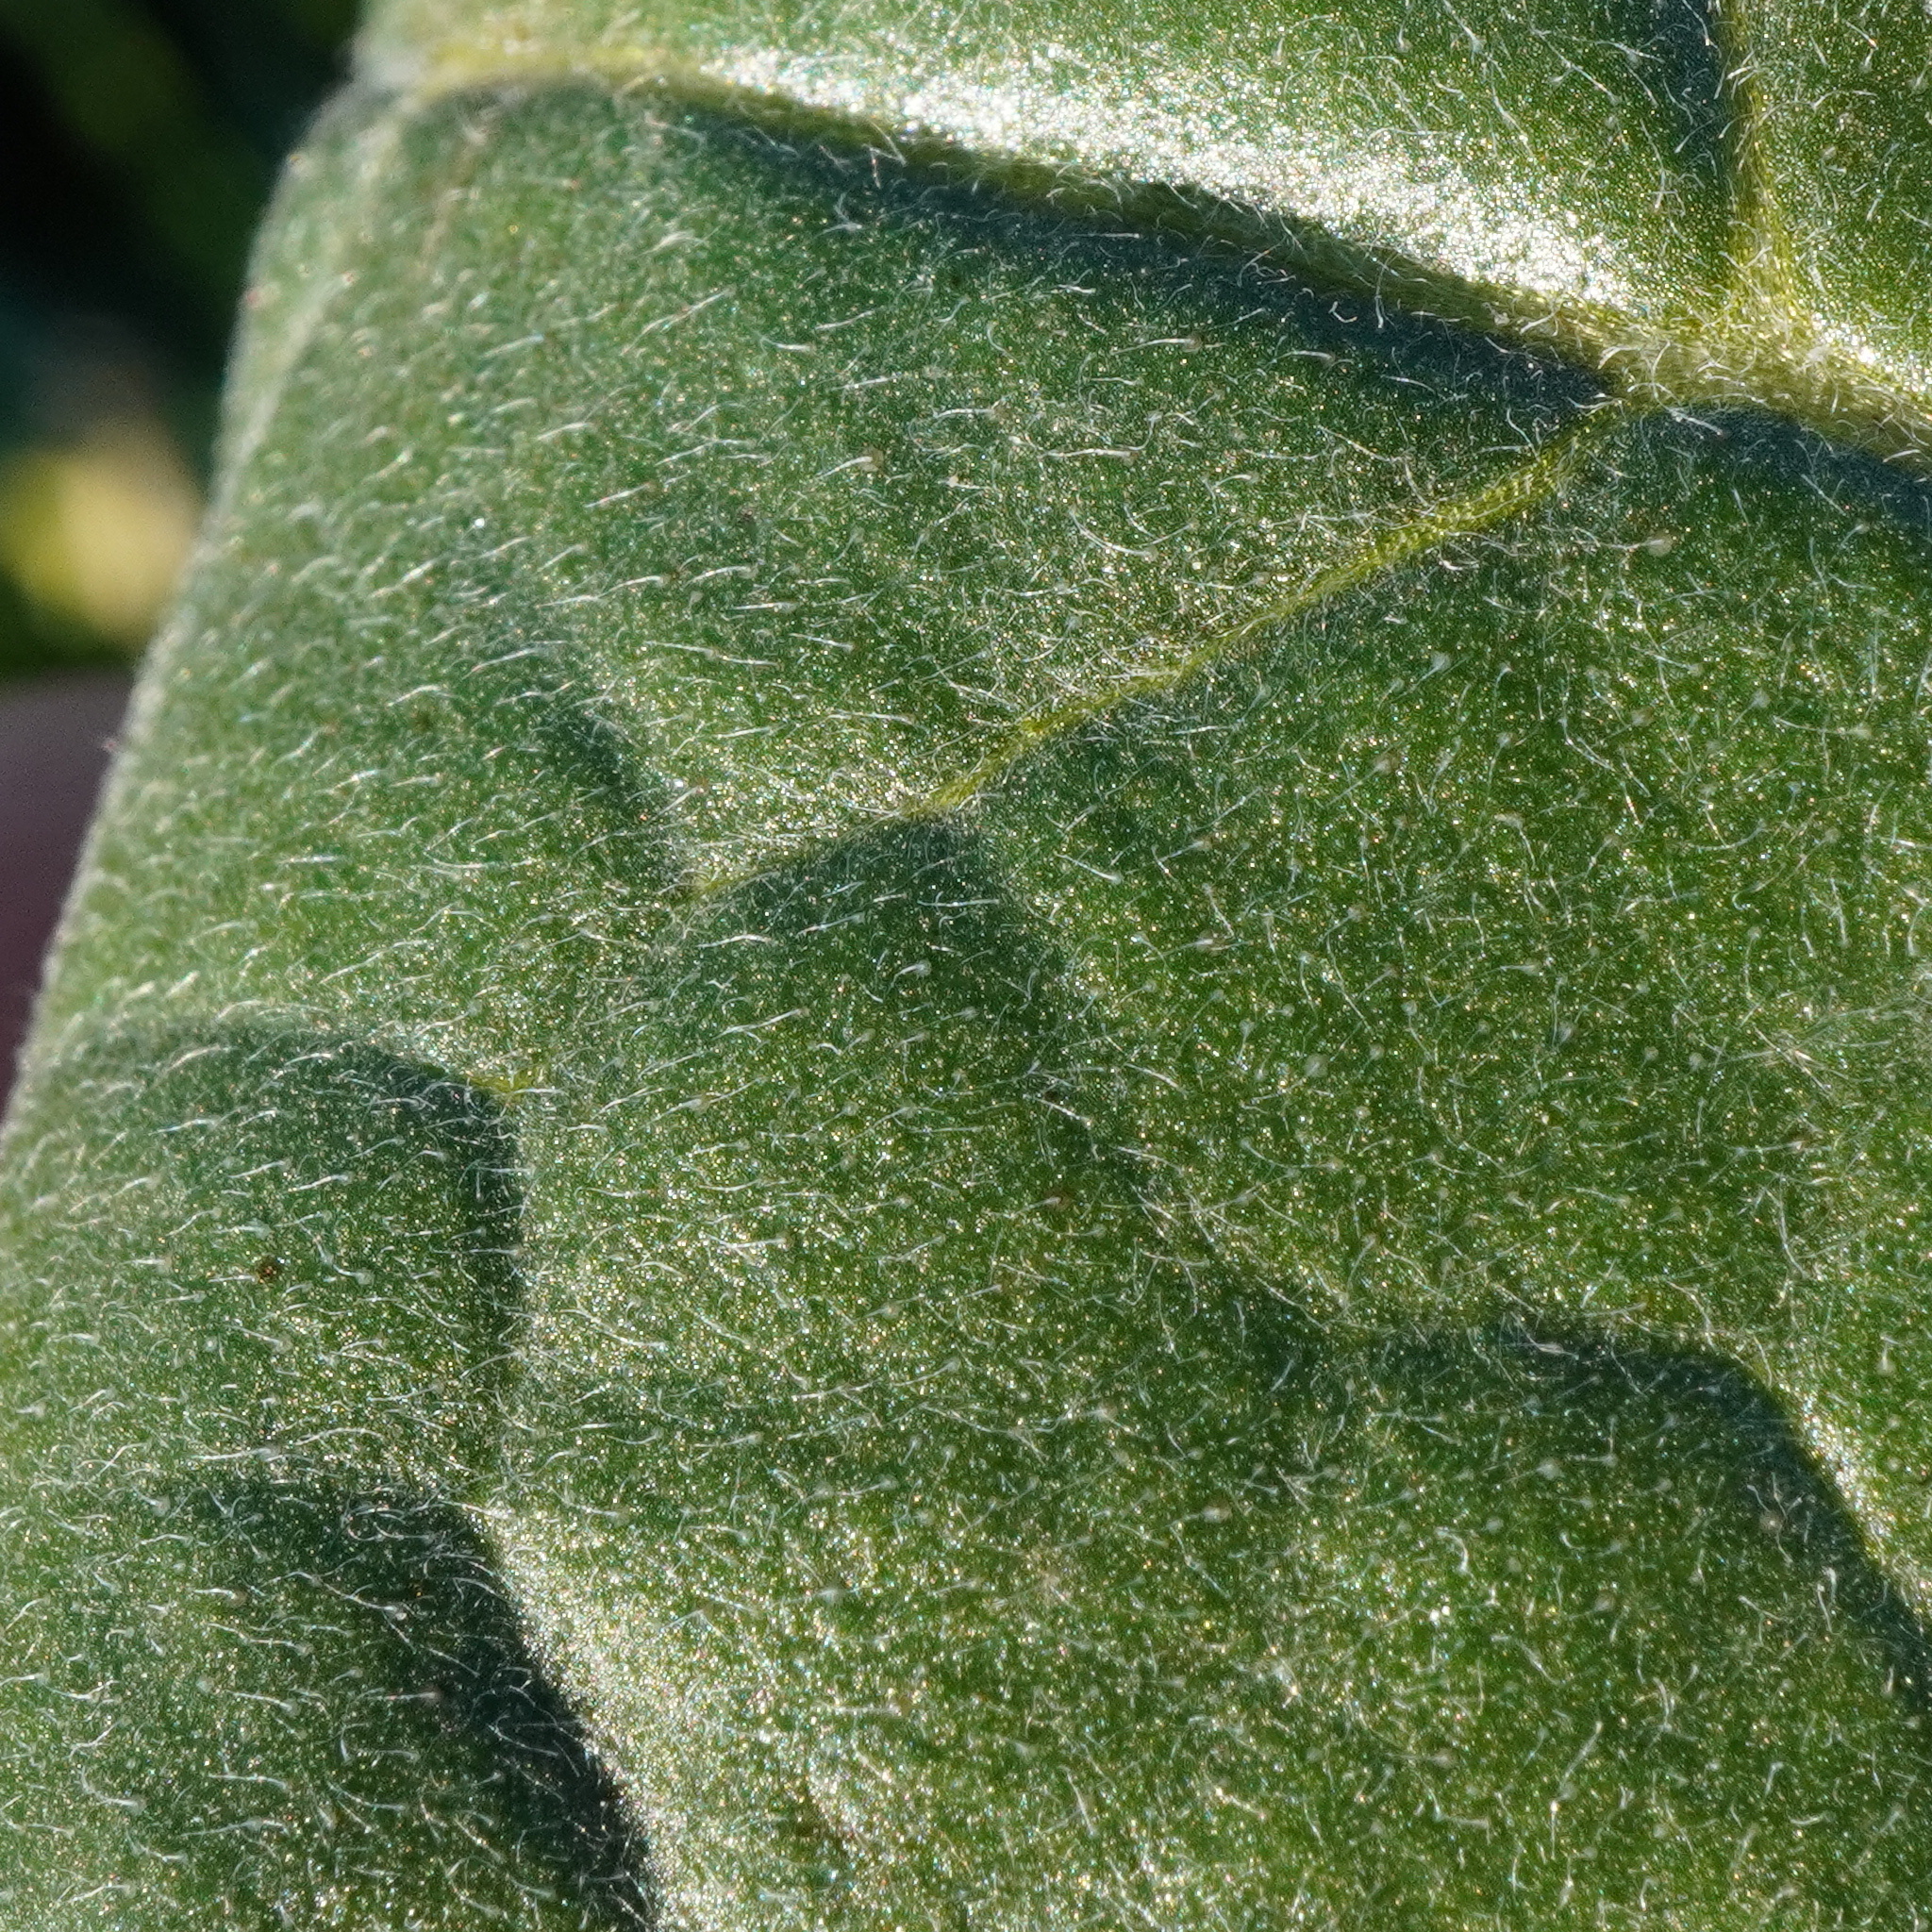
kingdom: Plantae
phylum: Tracheophyta
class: Magnoliopsida
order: Boraginales
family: Boraginaceae
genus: Cynoglossum
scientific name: Cynoglossum officinale
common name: Hound's-tongue
